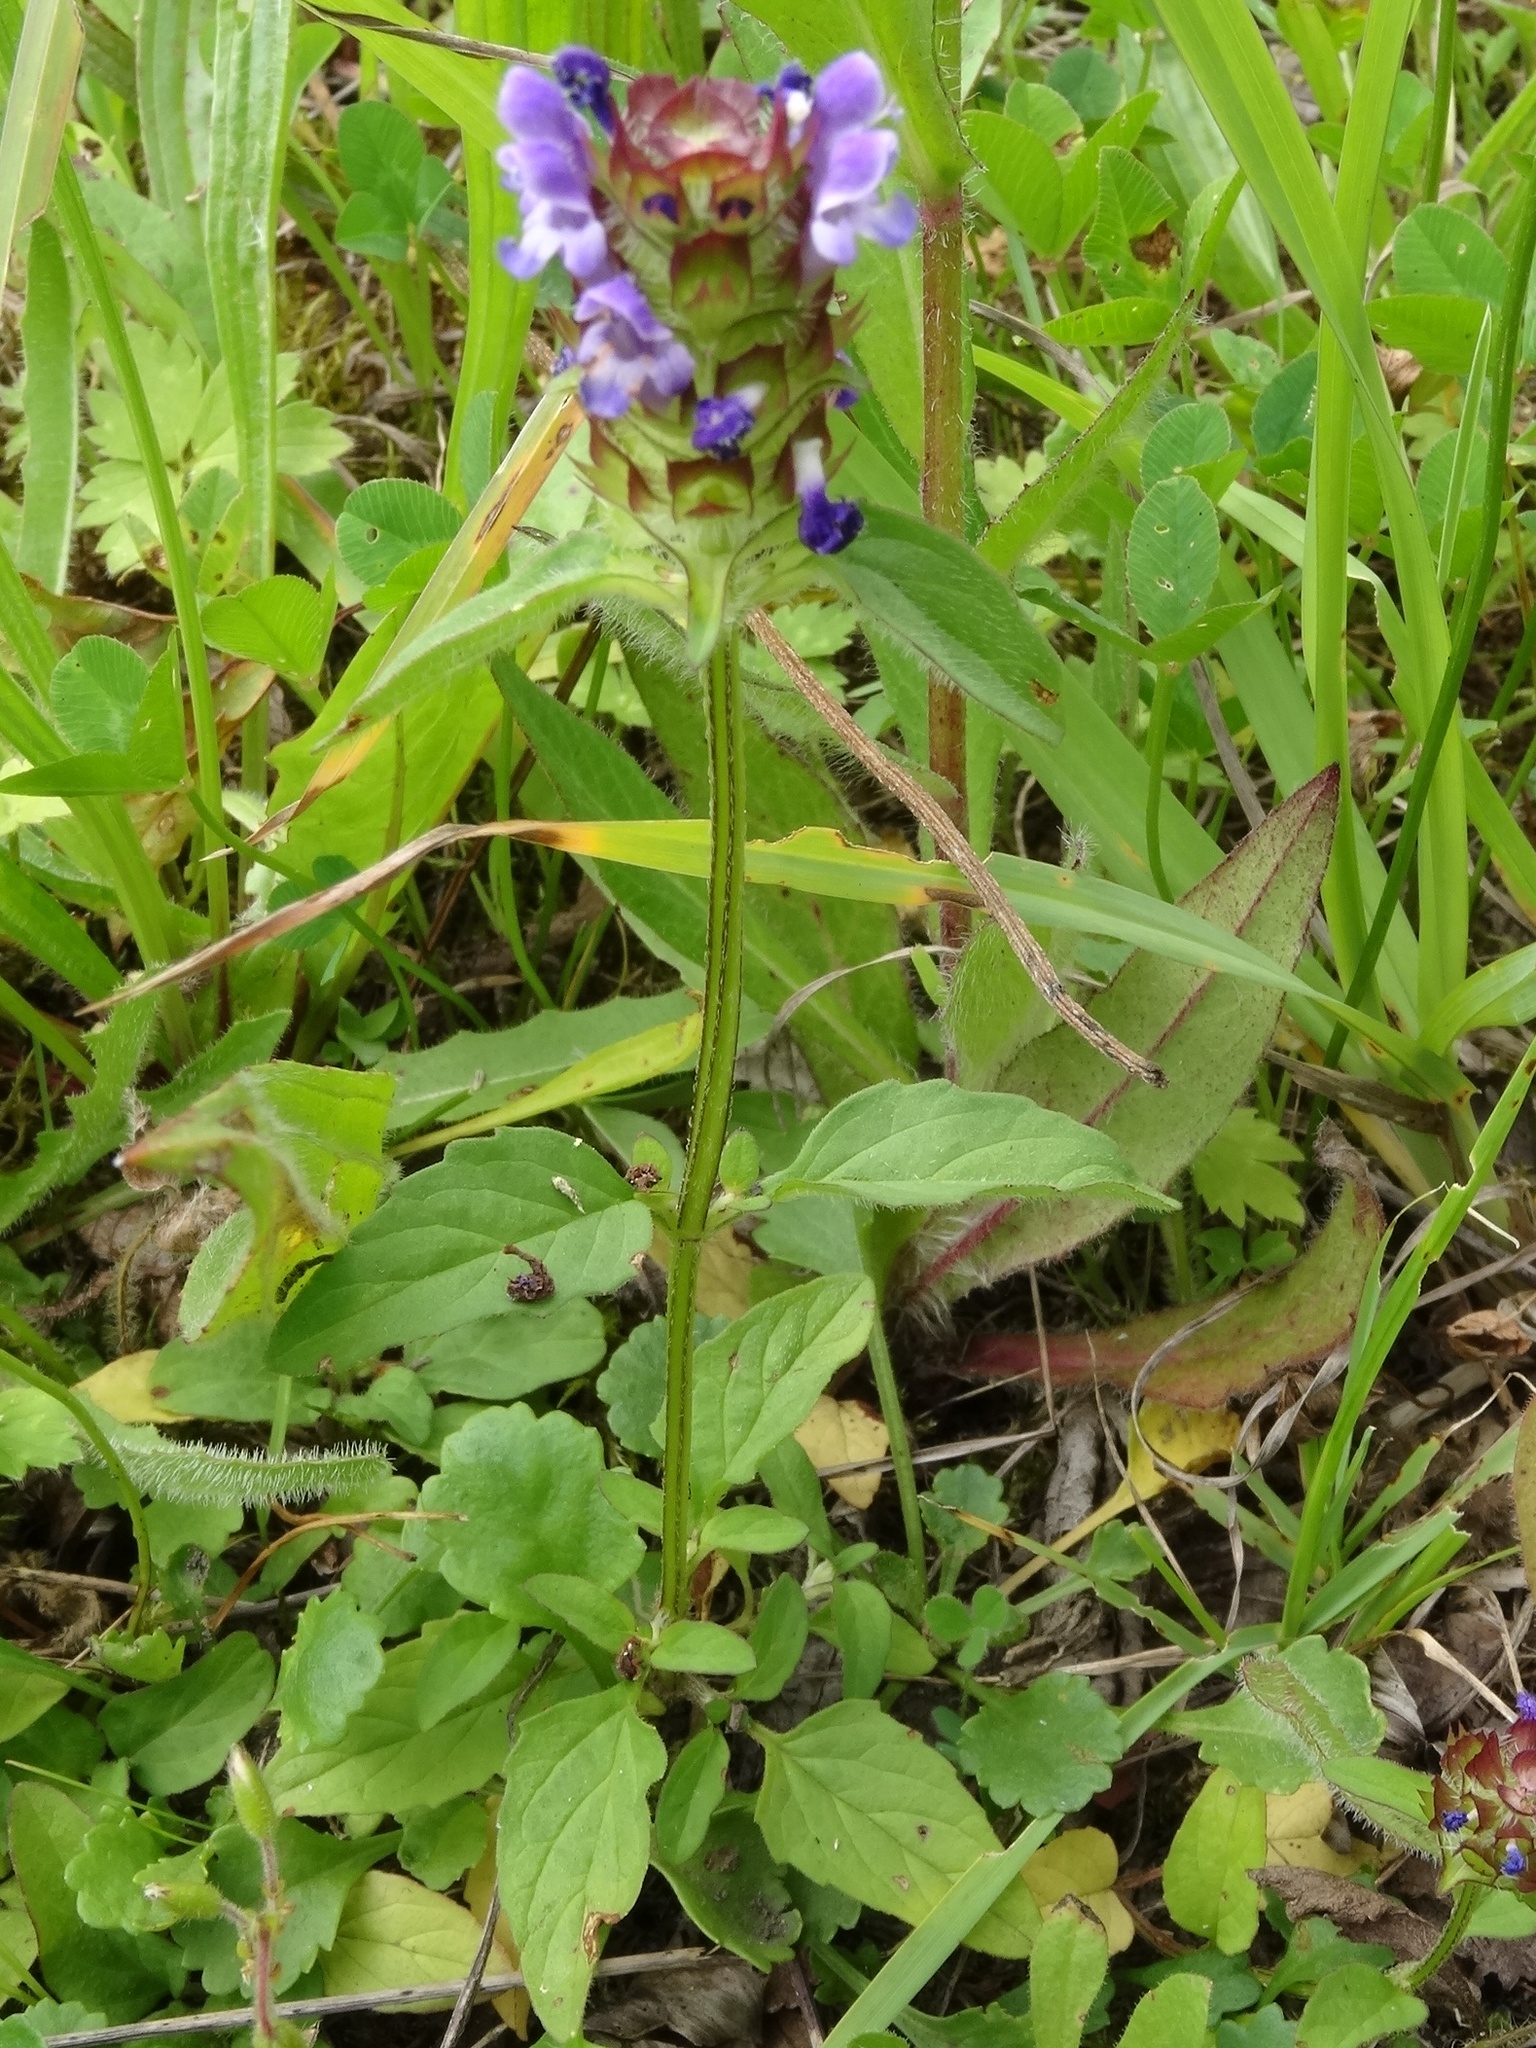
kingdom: Plantae
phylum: Tracheophyta
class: Magnoliopsida
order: Lamiales
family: Lamiaceae
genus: Prunella
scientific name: Prunella vulgaris
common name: Heal-all
